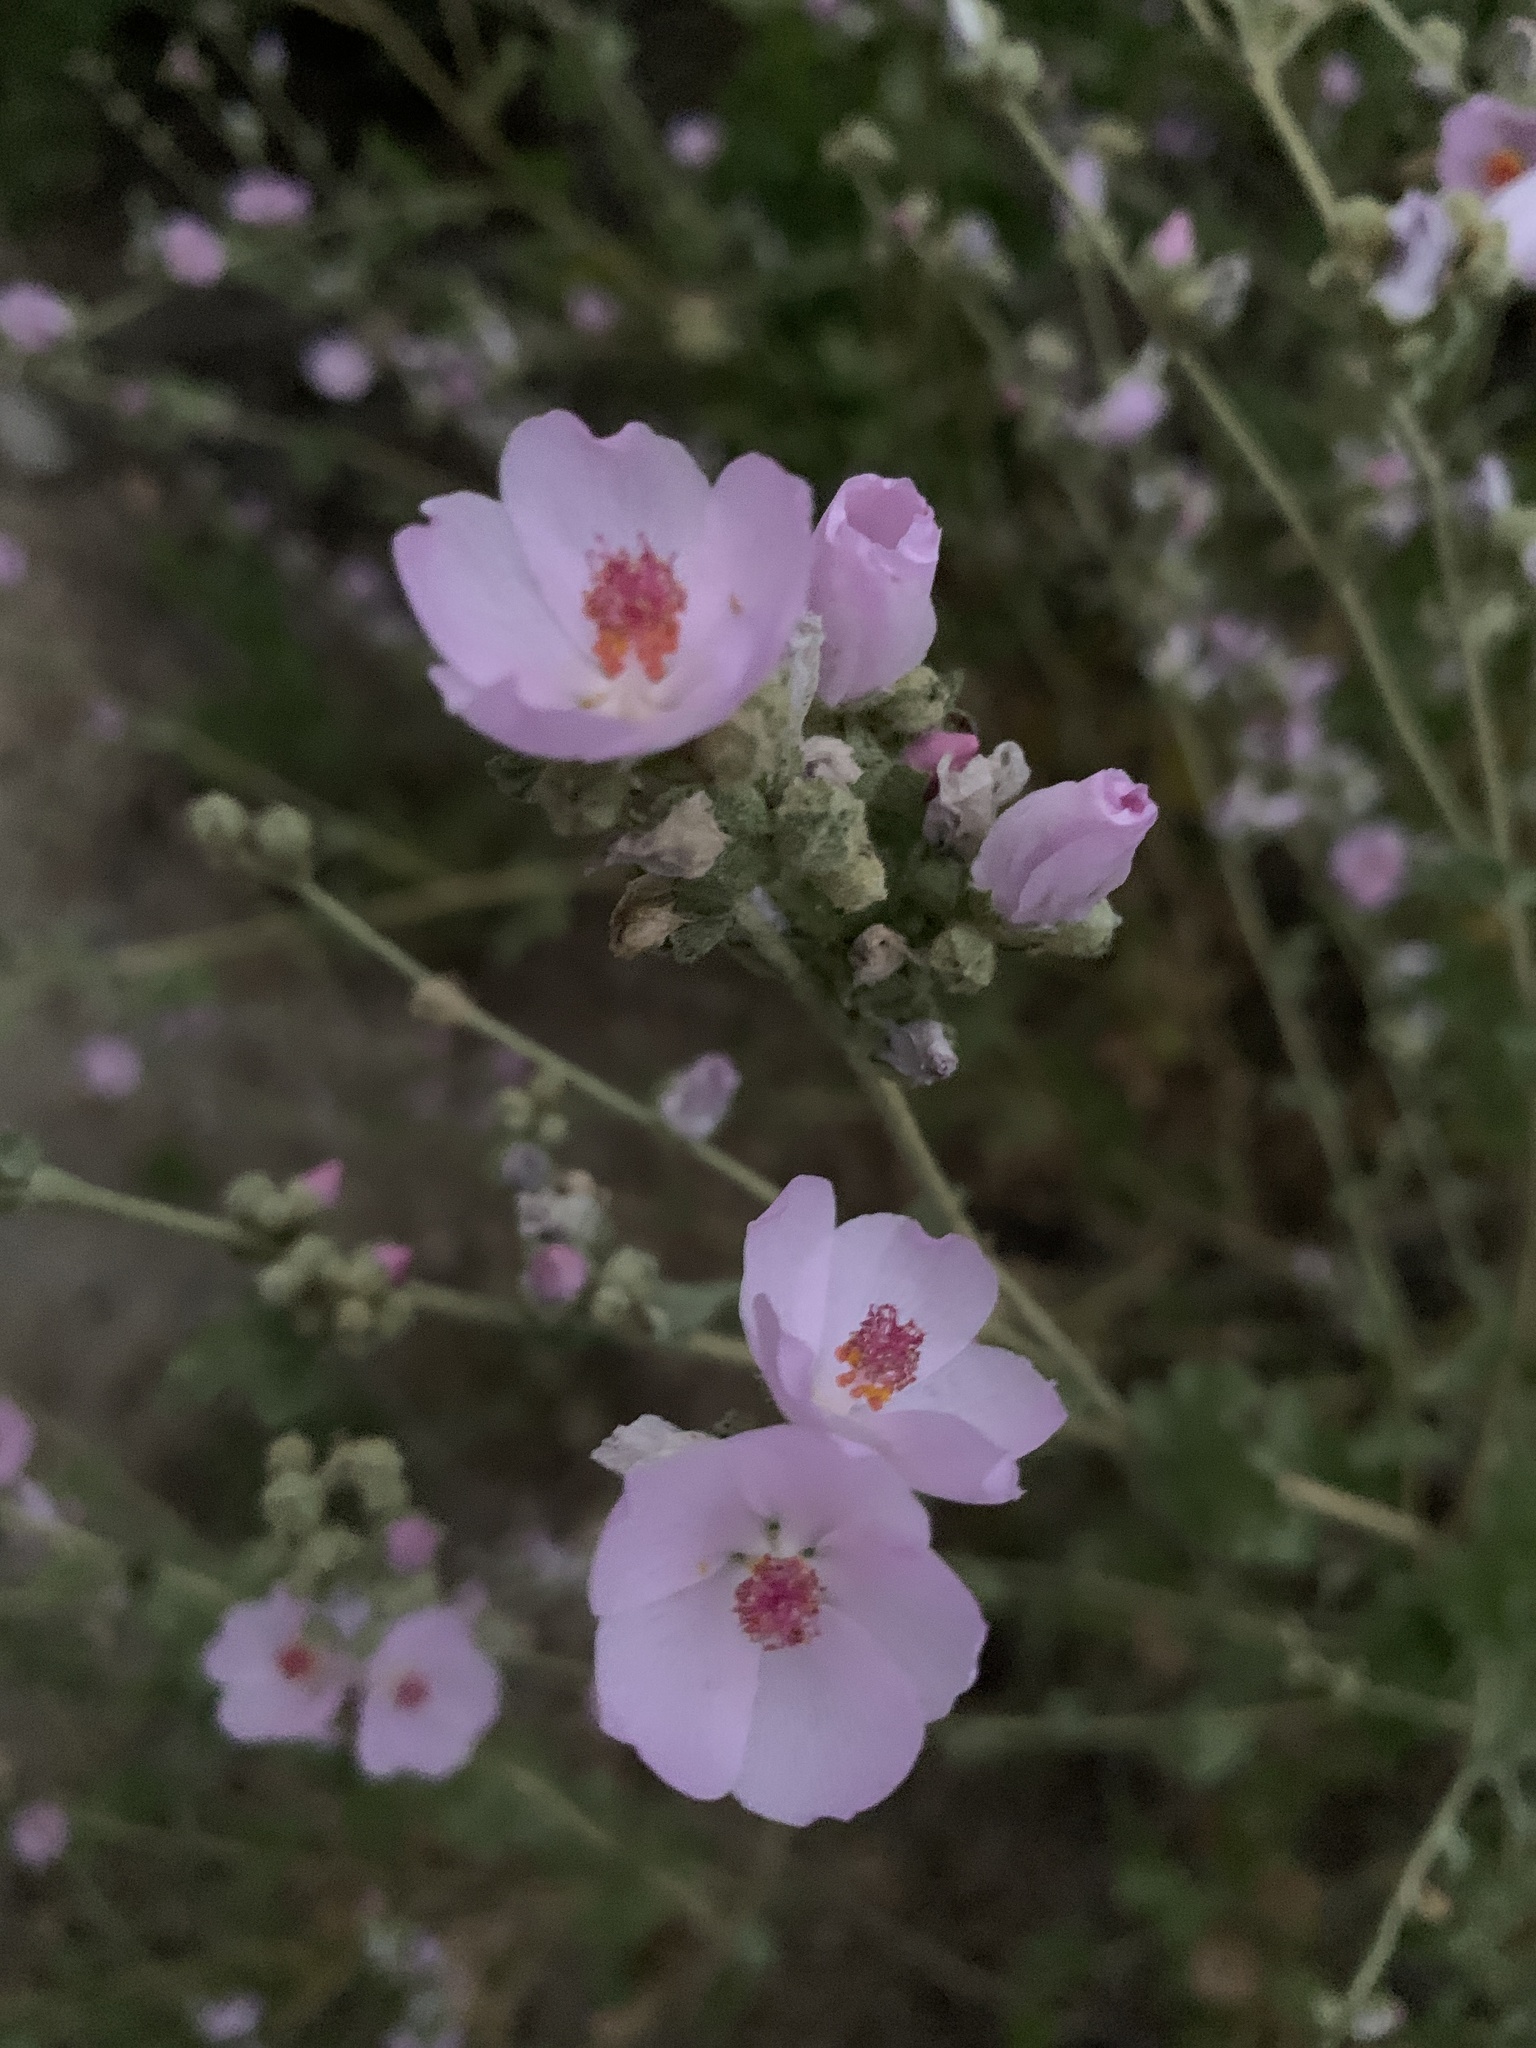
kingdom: Plantae
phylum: Tracheophyta
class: Magnoliopsida
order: Malvales
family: Malvaceae
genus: Malacothamnus
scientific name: Malacothamnus fasciculatus
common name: Sant cruz island bush-mallow
